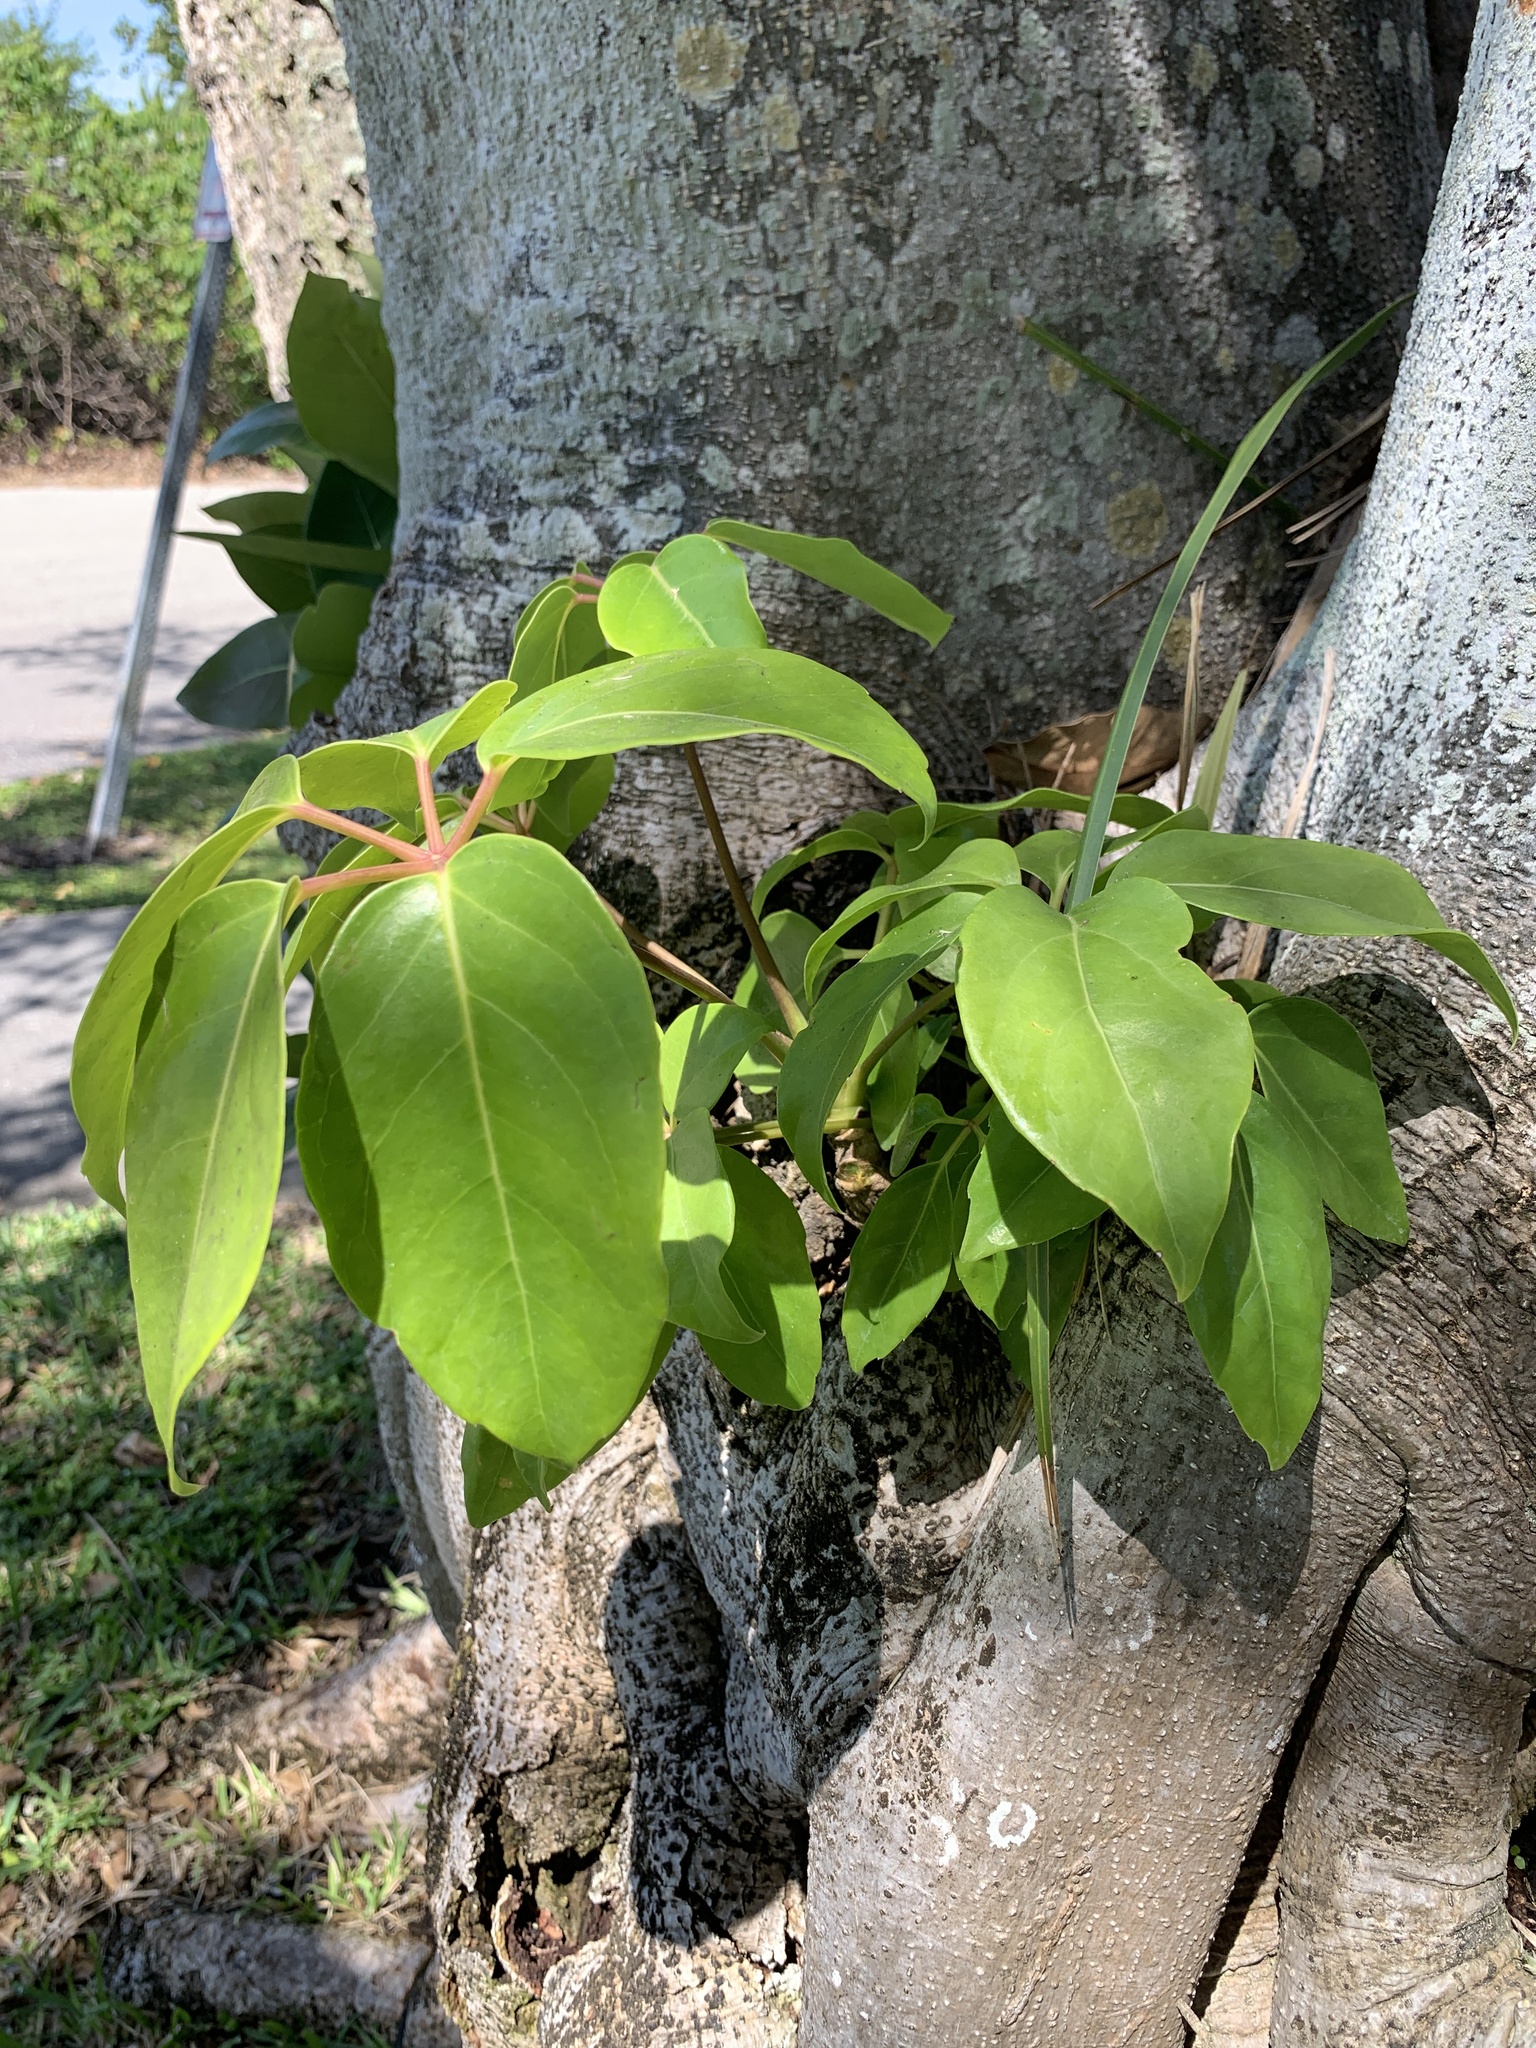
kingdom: Plantae
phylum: Tracheophyta
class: Magnoliopsida
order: Apiales
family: Araliaceae
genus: Heptapleurum
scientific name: Heptapleurum actinophyllum
